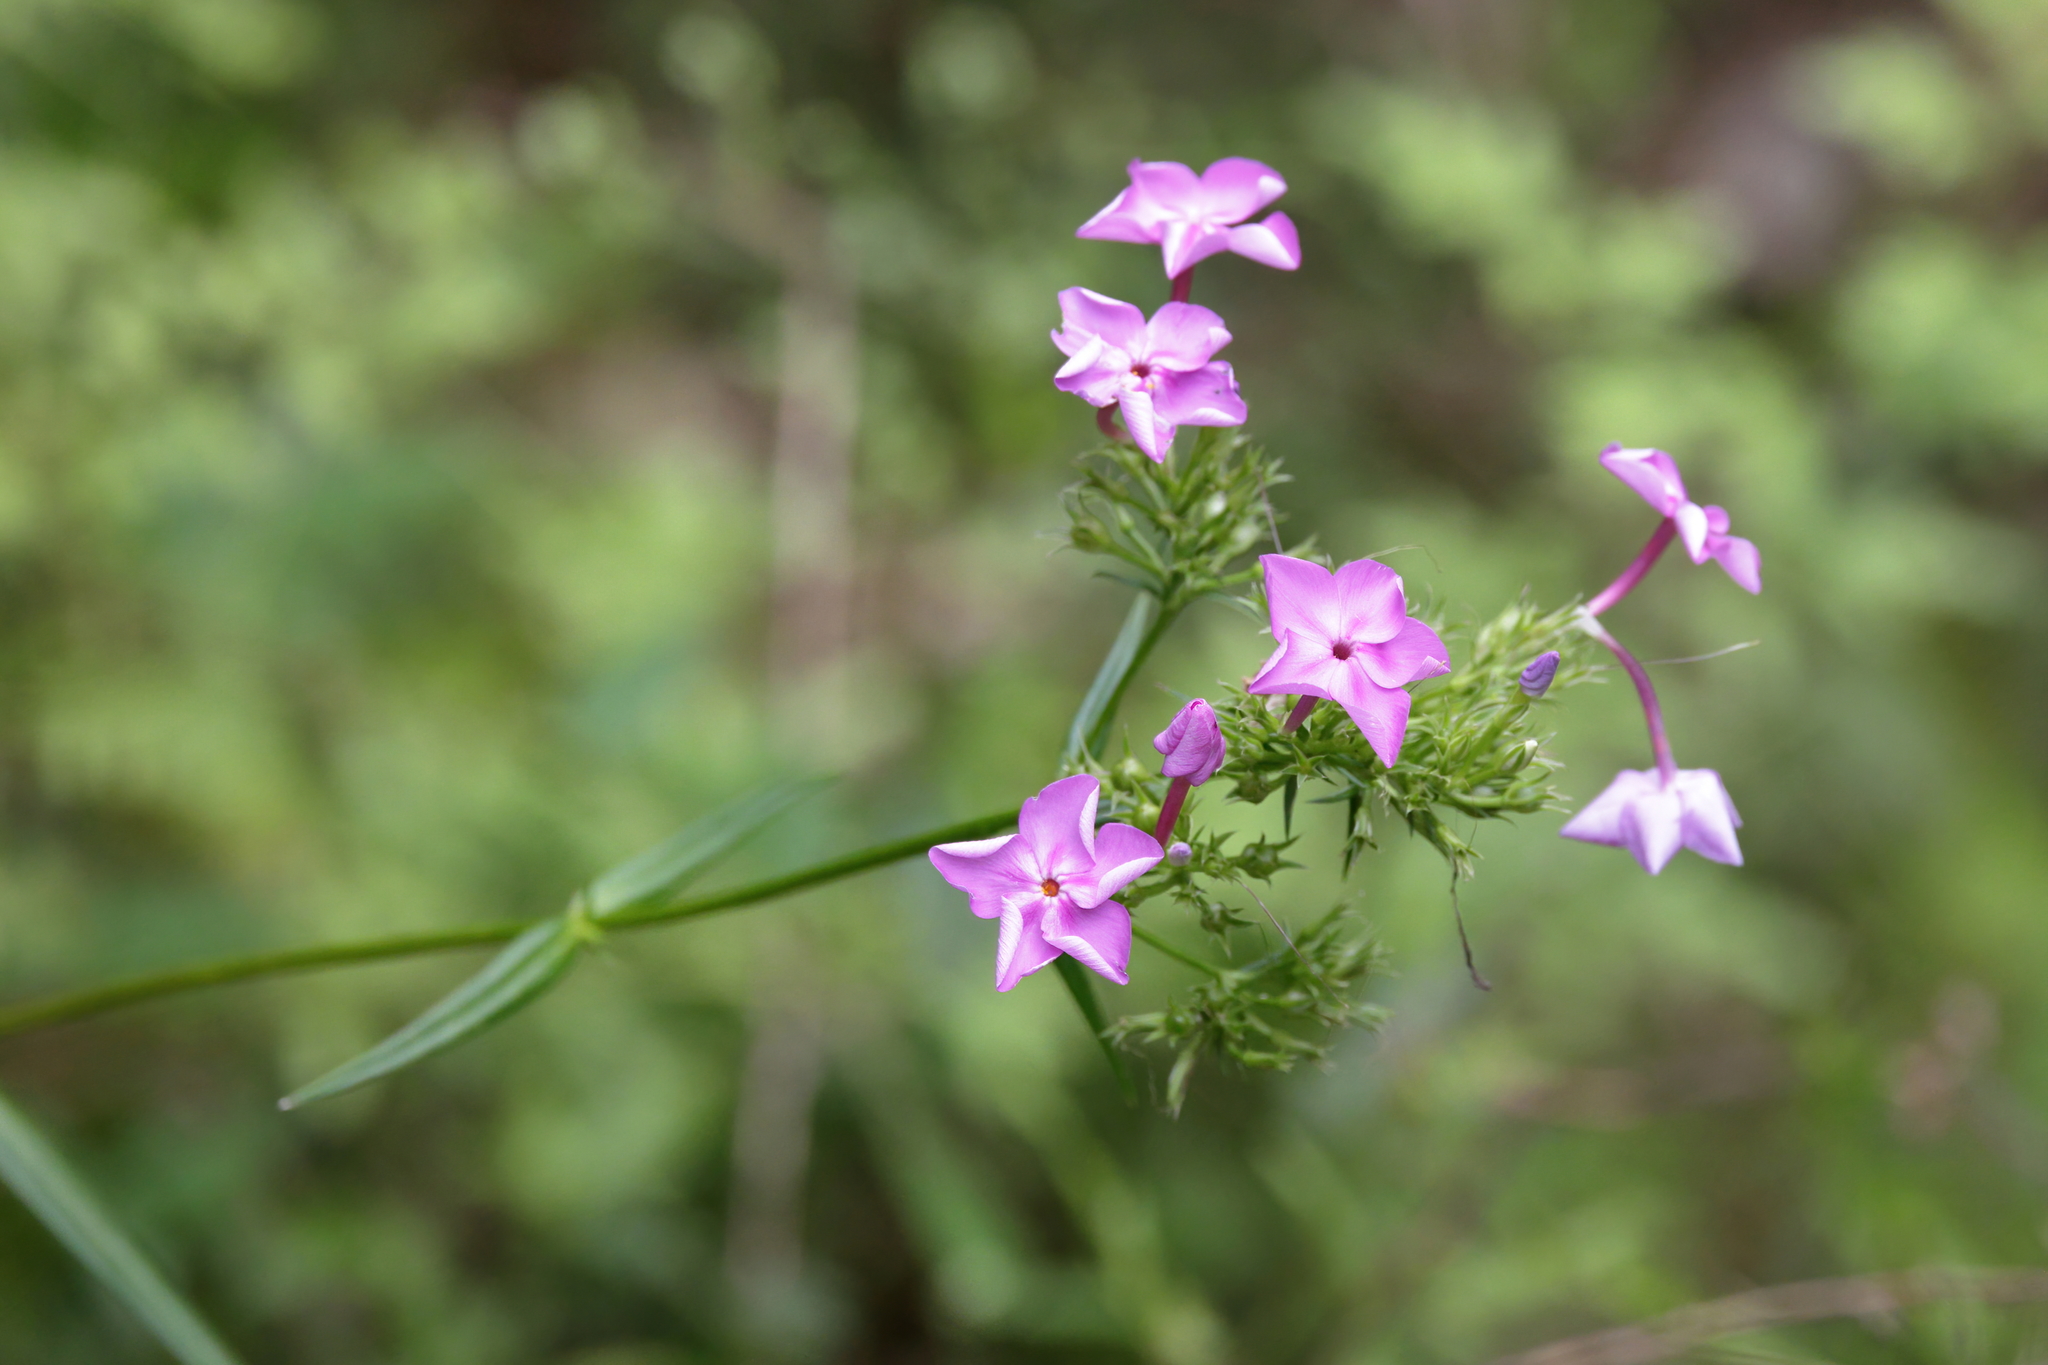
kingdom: Plantae
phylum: Tracheophyta
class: Magnoliopsida
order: Ericales
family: Polemoniaceae
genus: Phlox
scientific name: Phlox carolina
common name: Thick-leaf phlox
